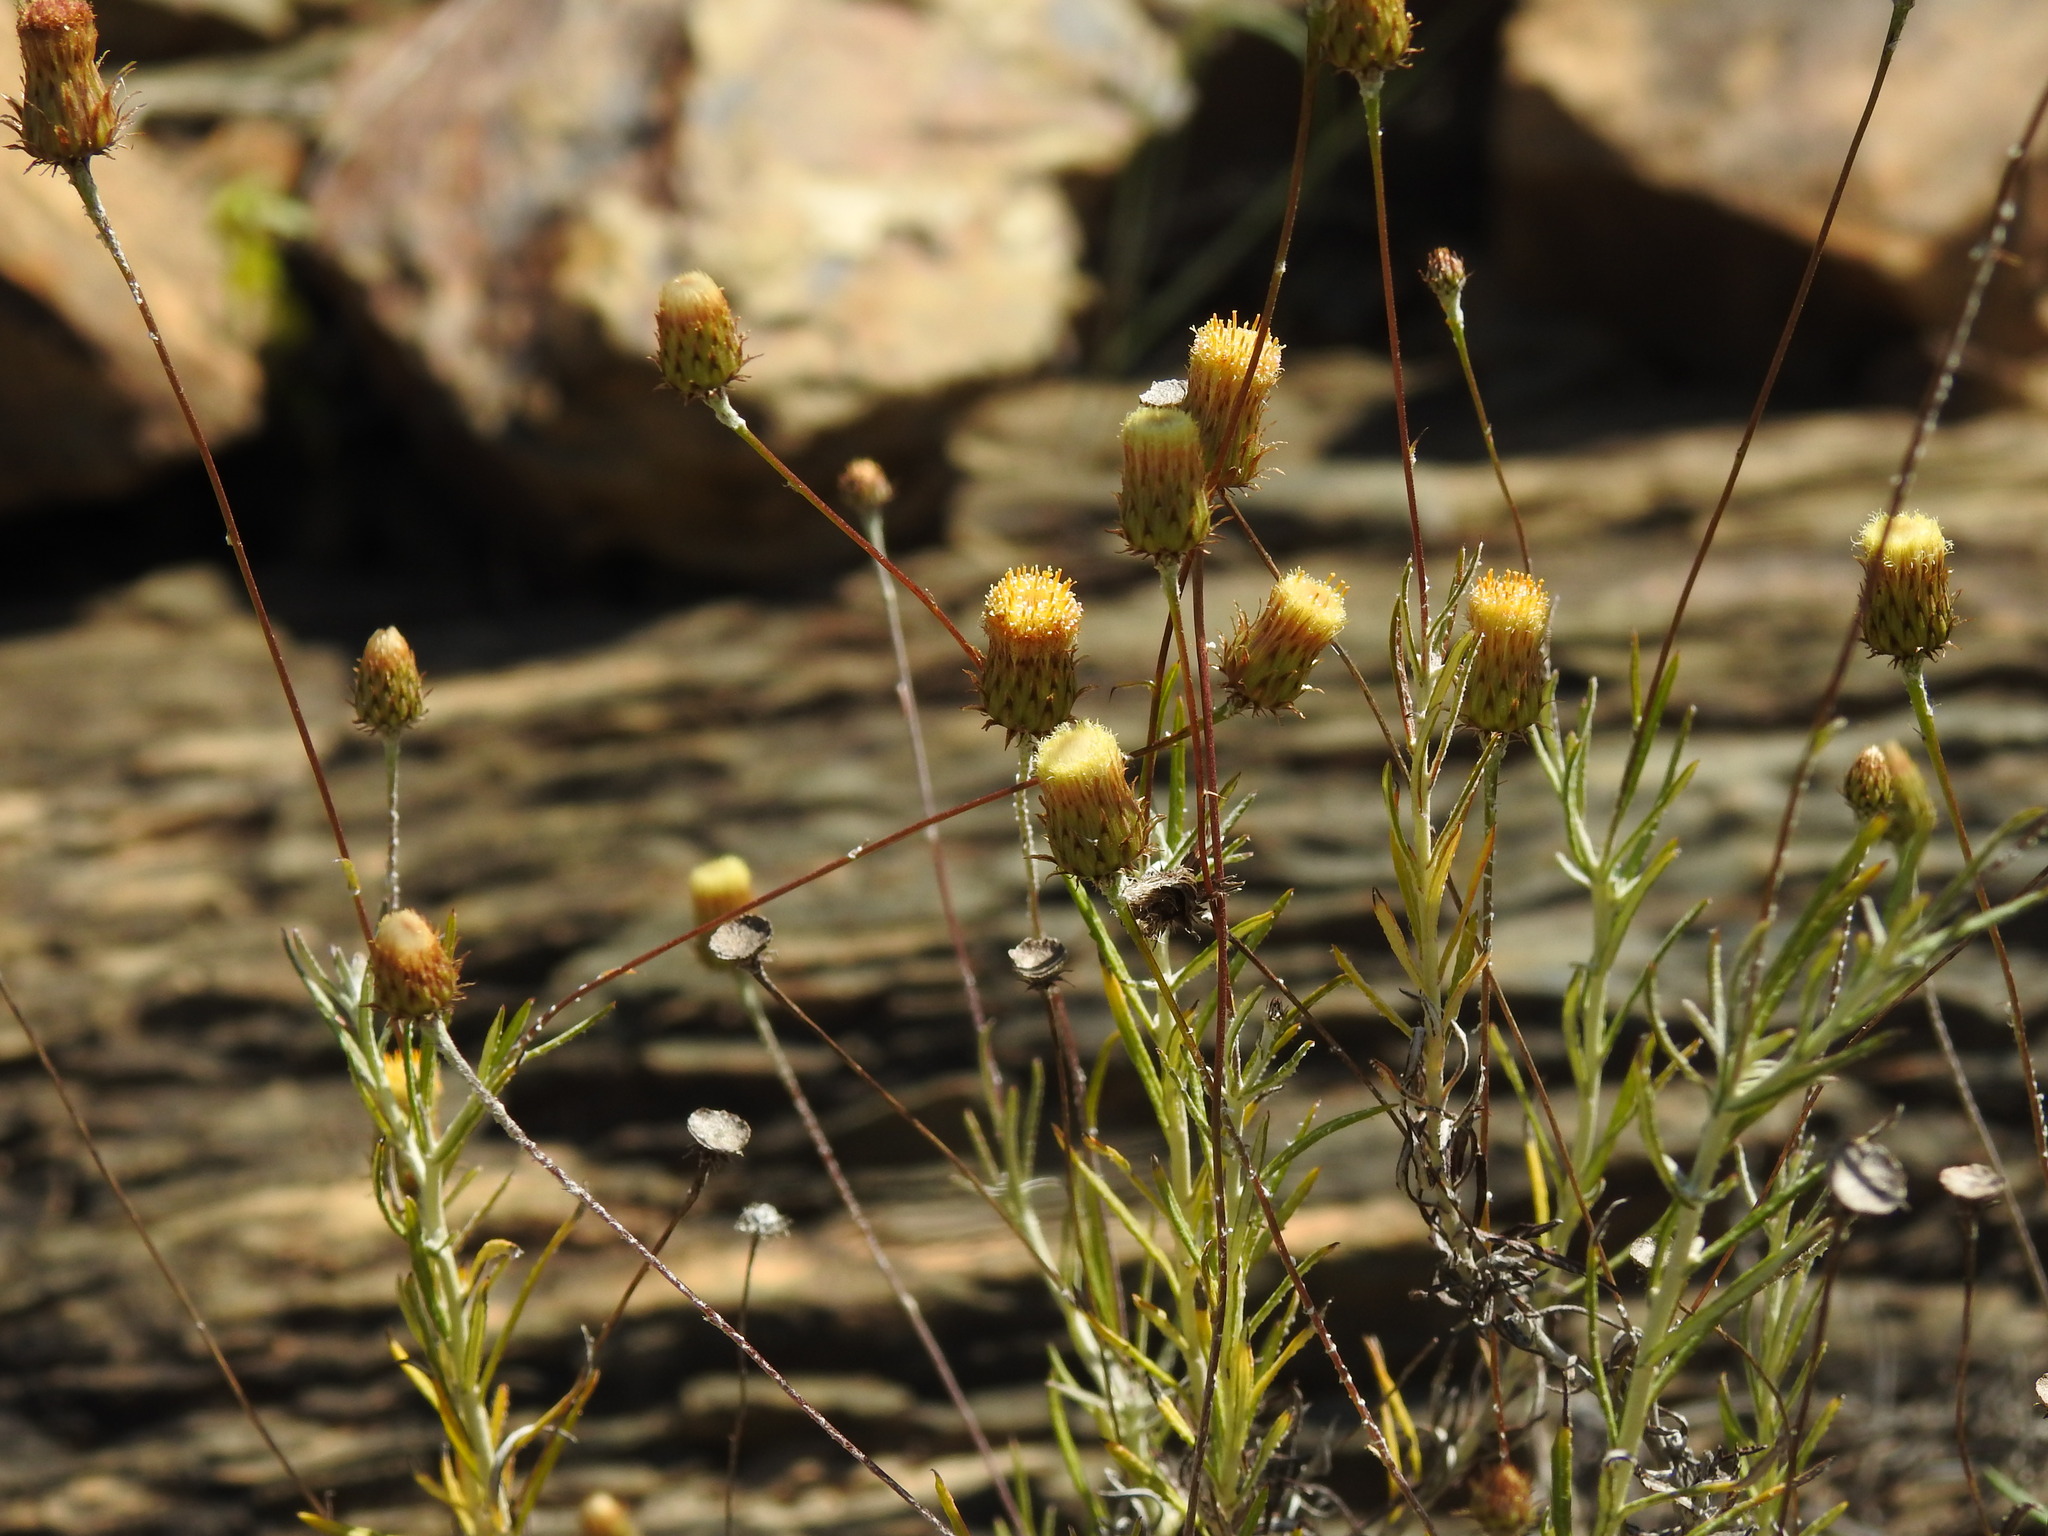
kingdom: Plantae
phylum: Tracheophyta
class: Magnoliopsida
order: Asterales
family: Asteraceae
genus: Phagnalon
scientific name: Phagnalon saxatile
